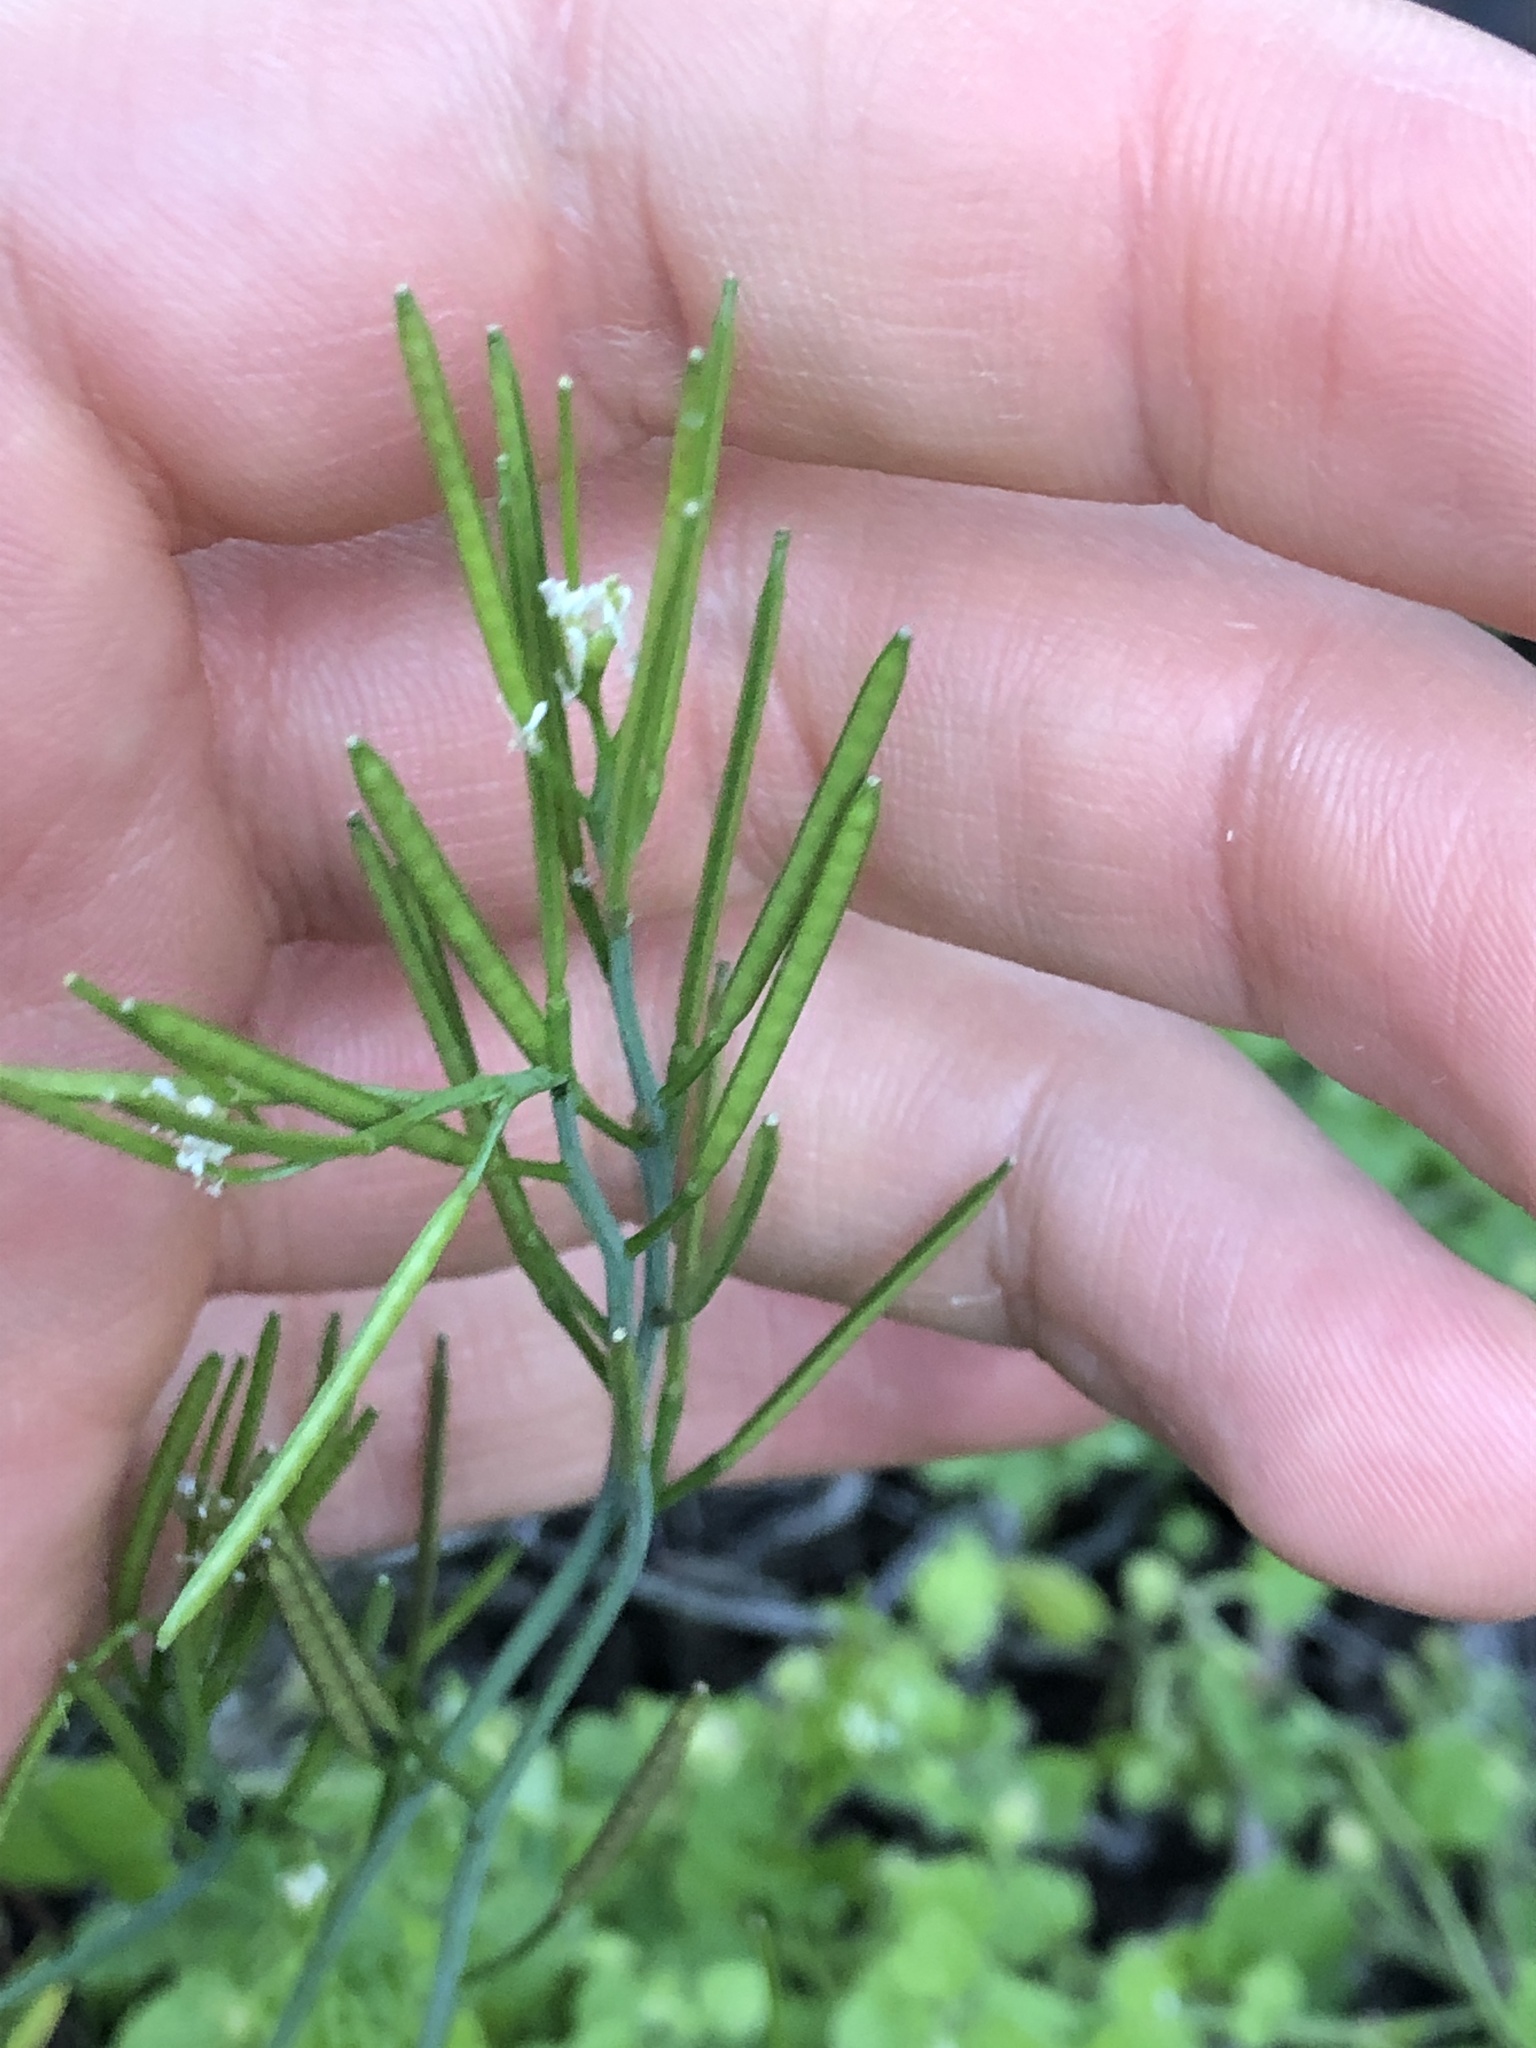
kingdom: Plantae
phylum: Tracheophyta
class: Magnoliopsida
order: Brassicales
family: Brassicaceae
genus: Cardamine
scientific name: Cardamine hirsuta
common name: Hairy bittercress
